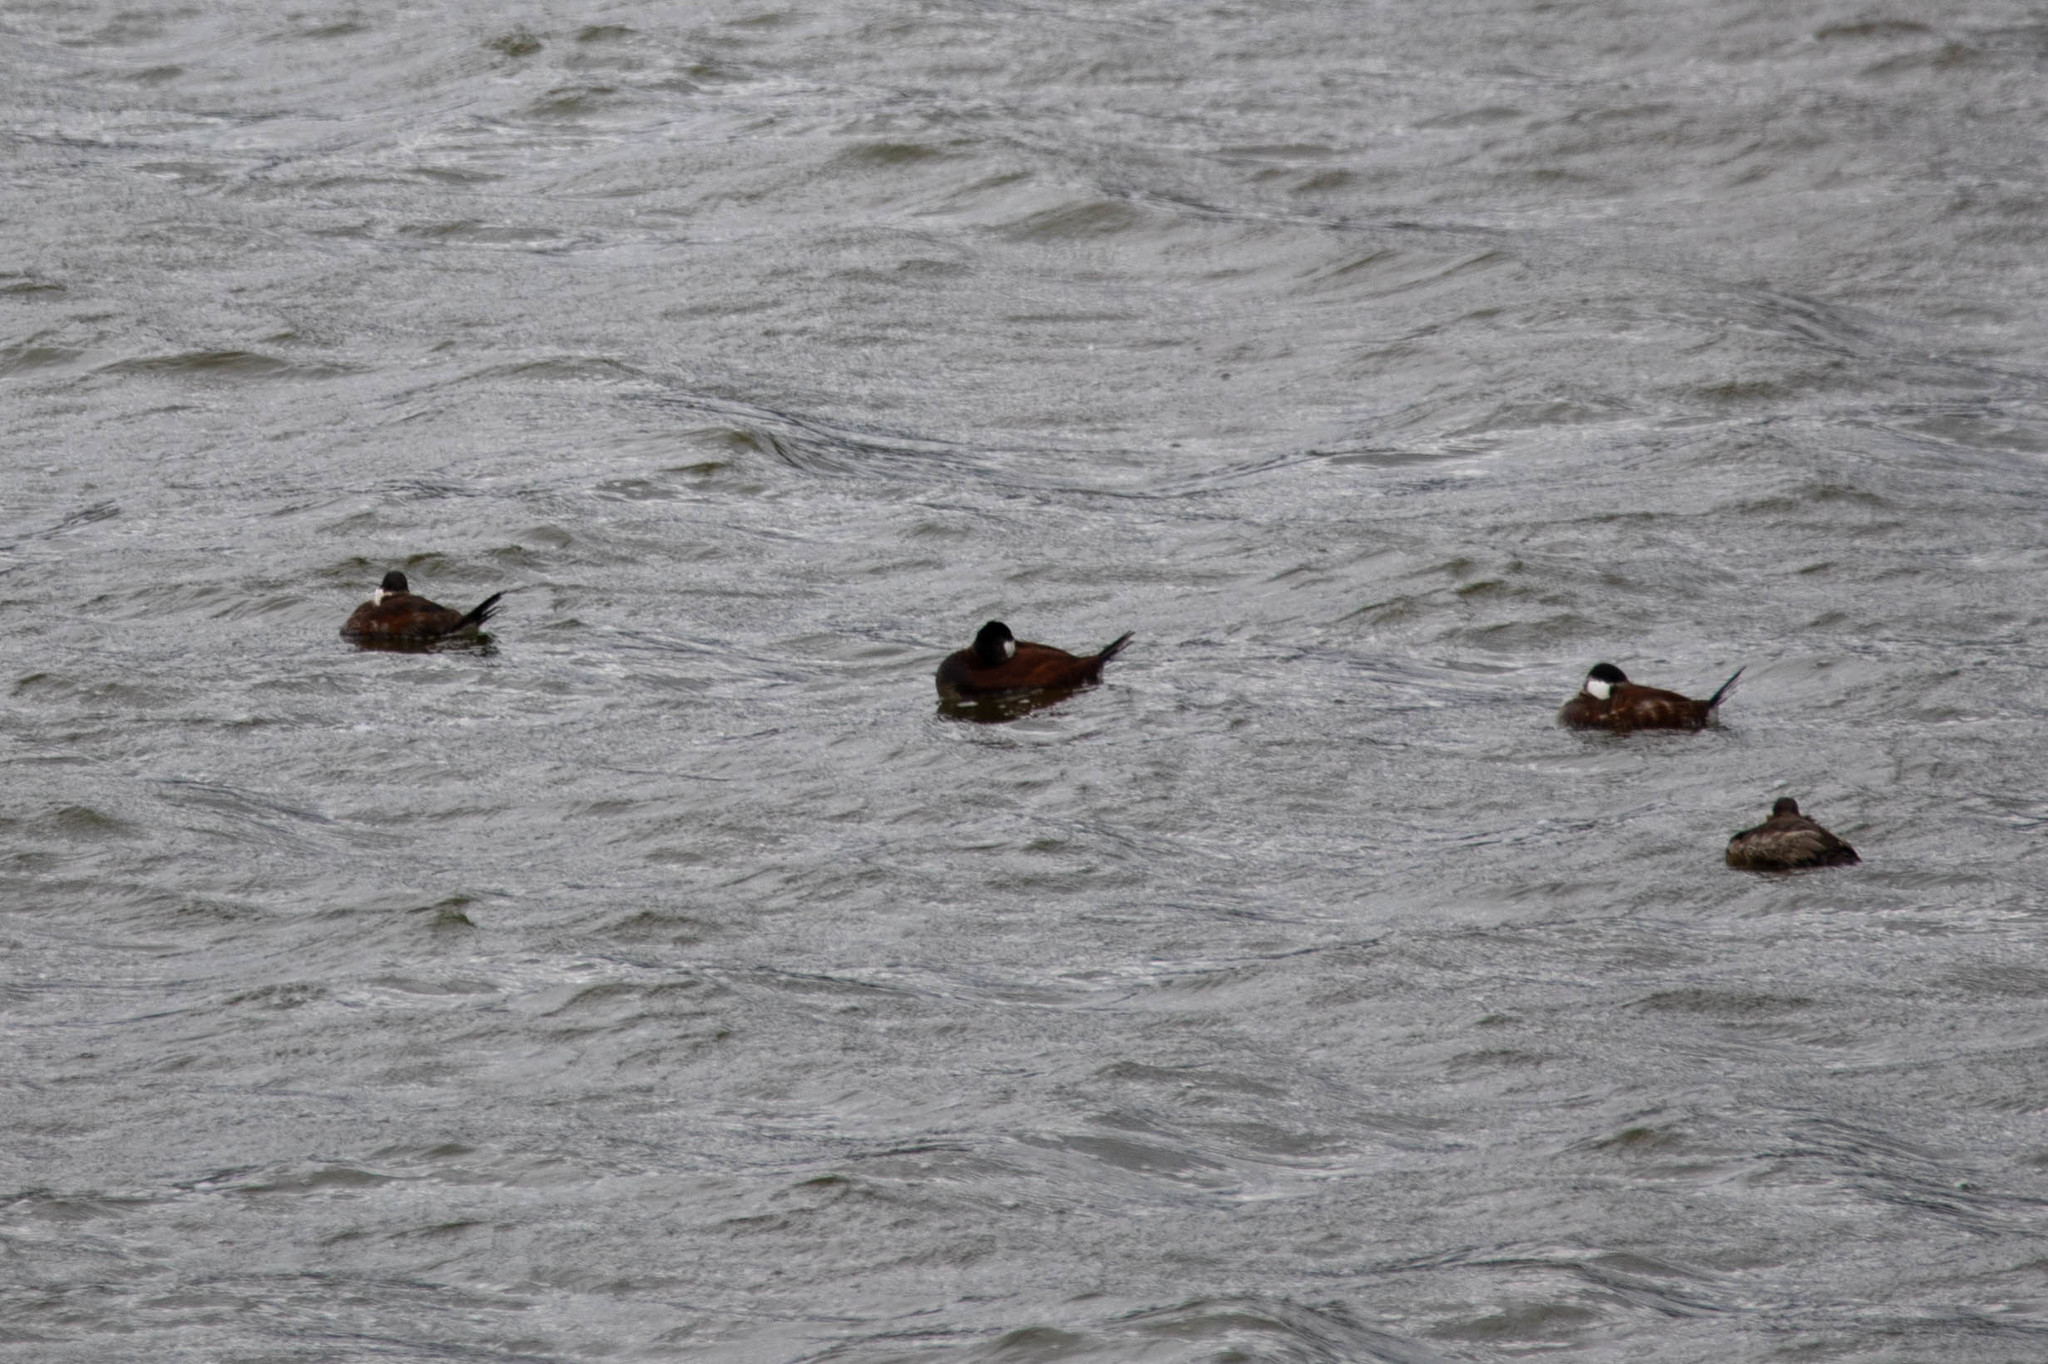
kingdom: Animalia
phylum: Chordata
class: Aves
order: Anseriformes
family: Anatidae
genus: Oxyura
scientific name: Oxyura jamaicensis
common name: Ruddy duck
